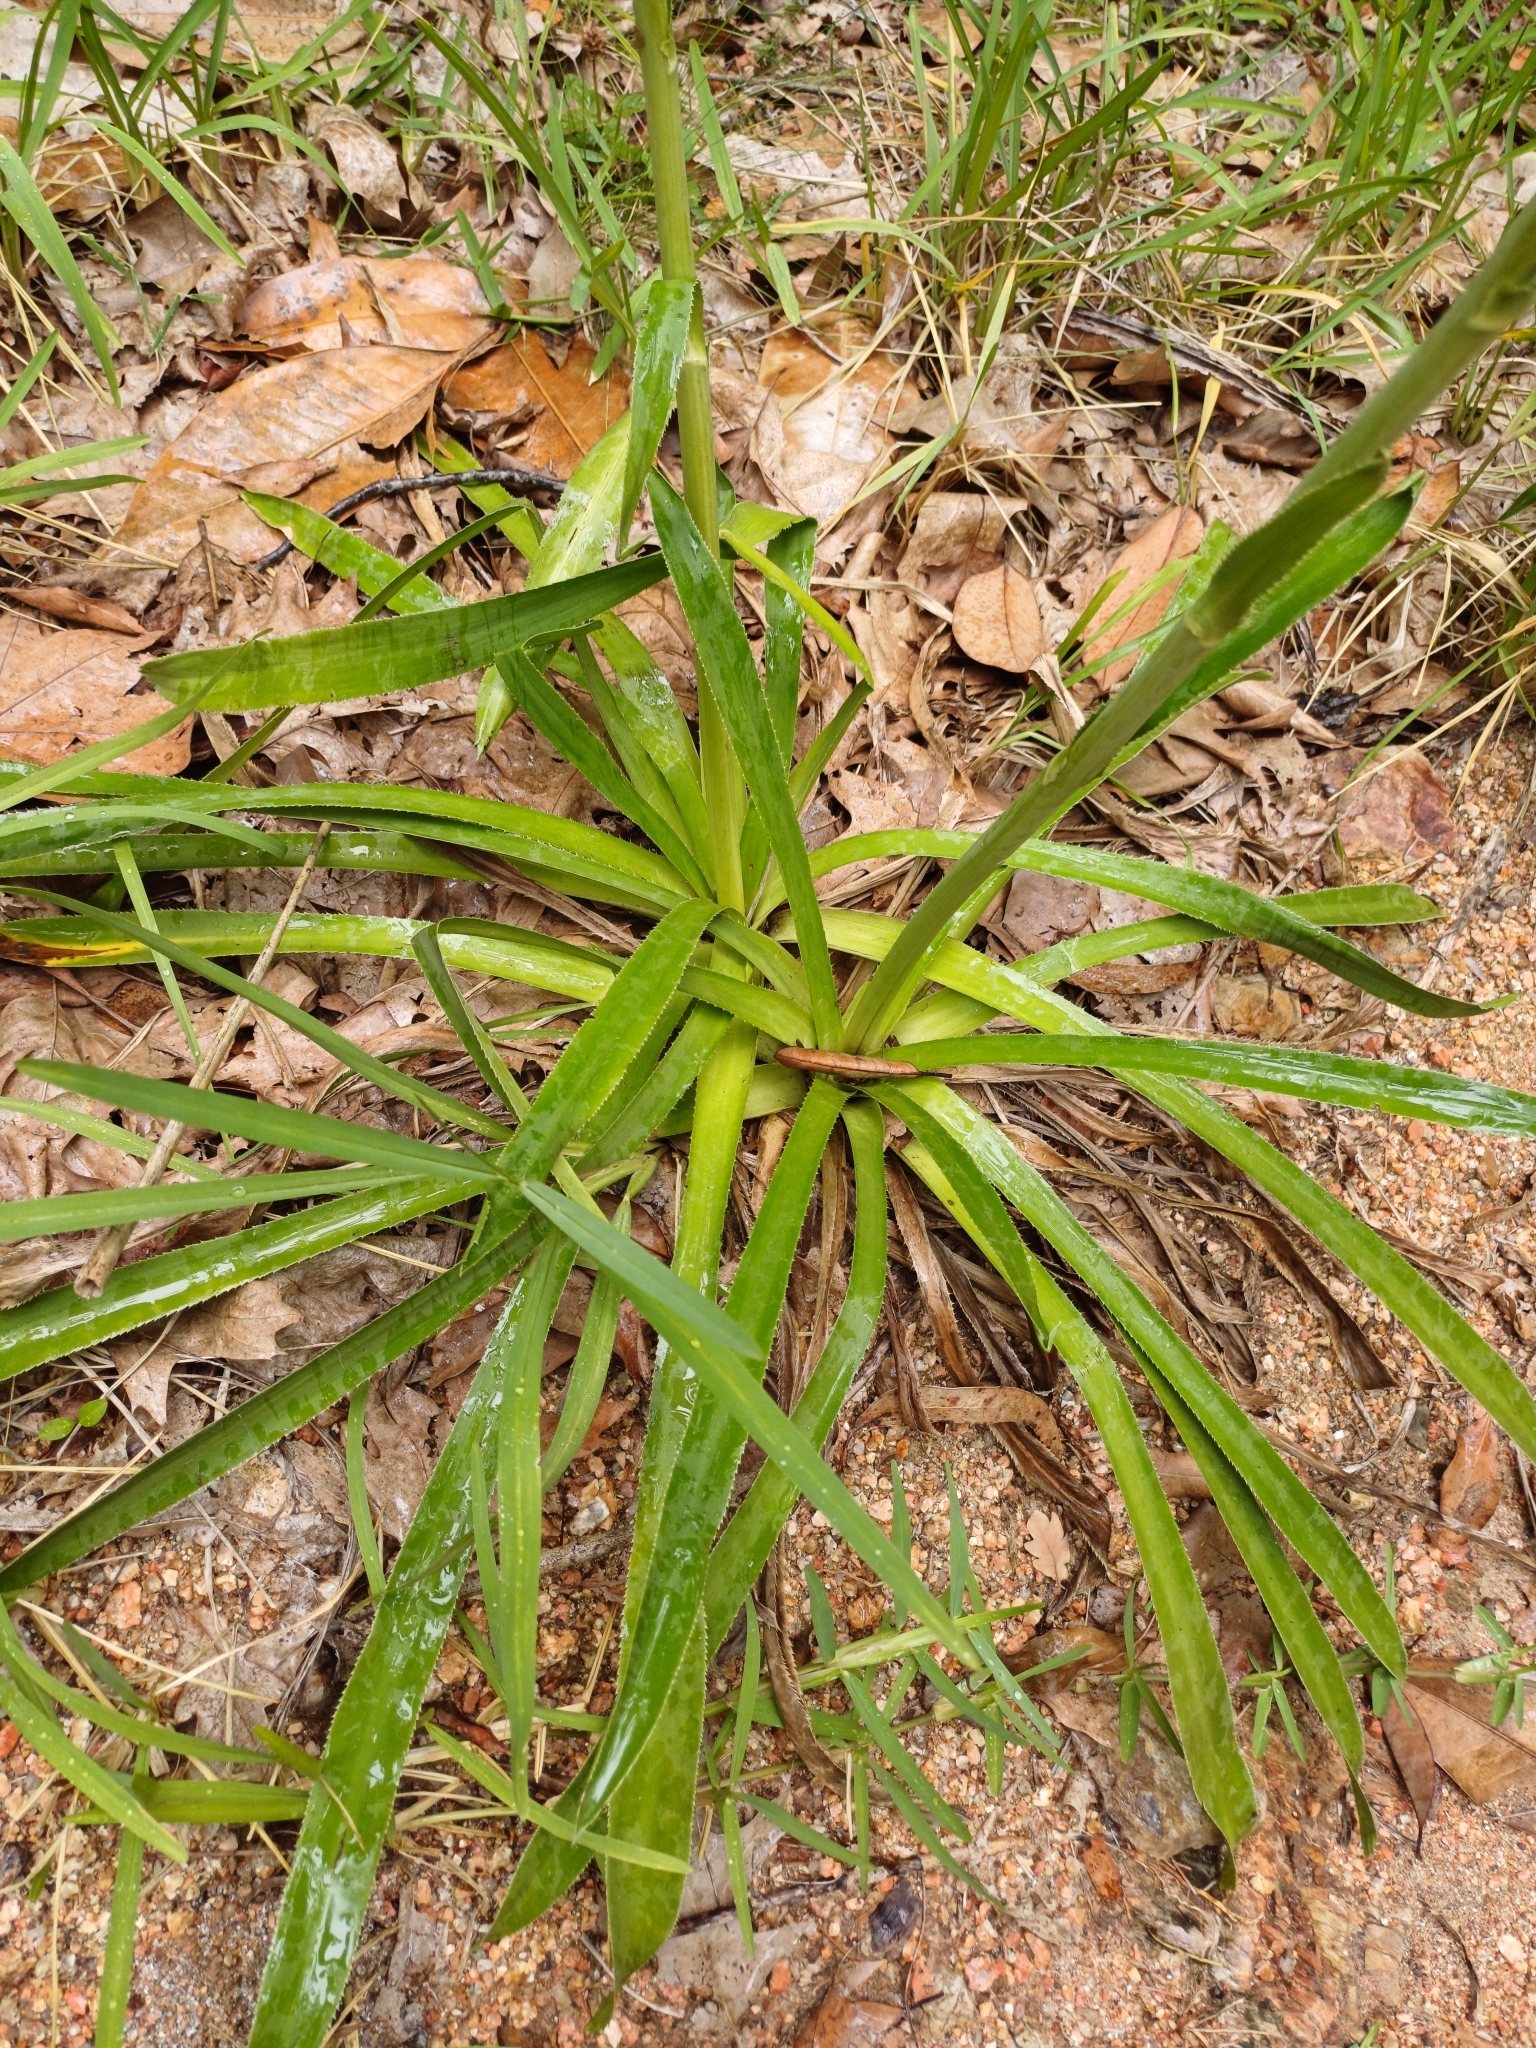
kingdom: Plantae
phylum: Tracheophyta
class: Magnoliopsida
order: Apiales
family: Apiaceae
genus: Eryngium
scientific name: Eryngium elegans
